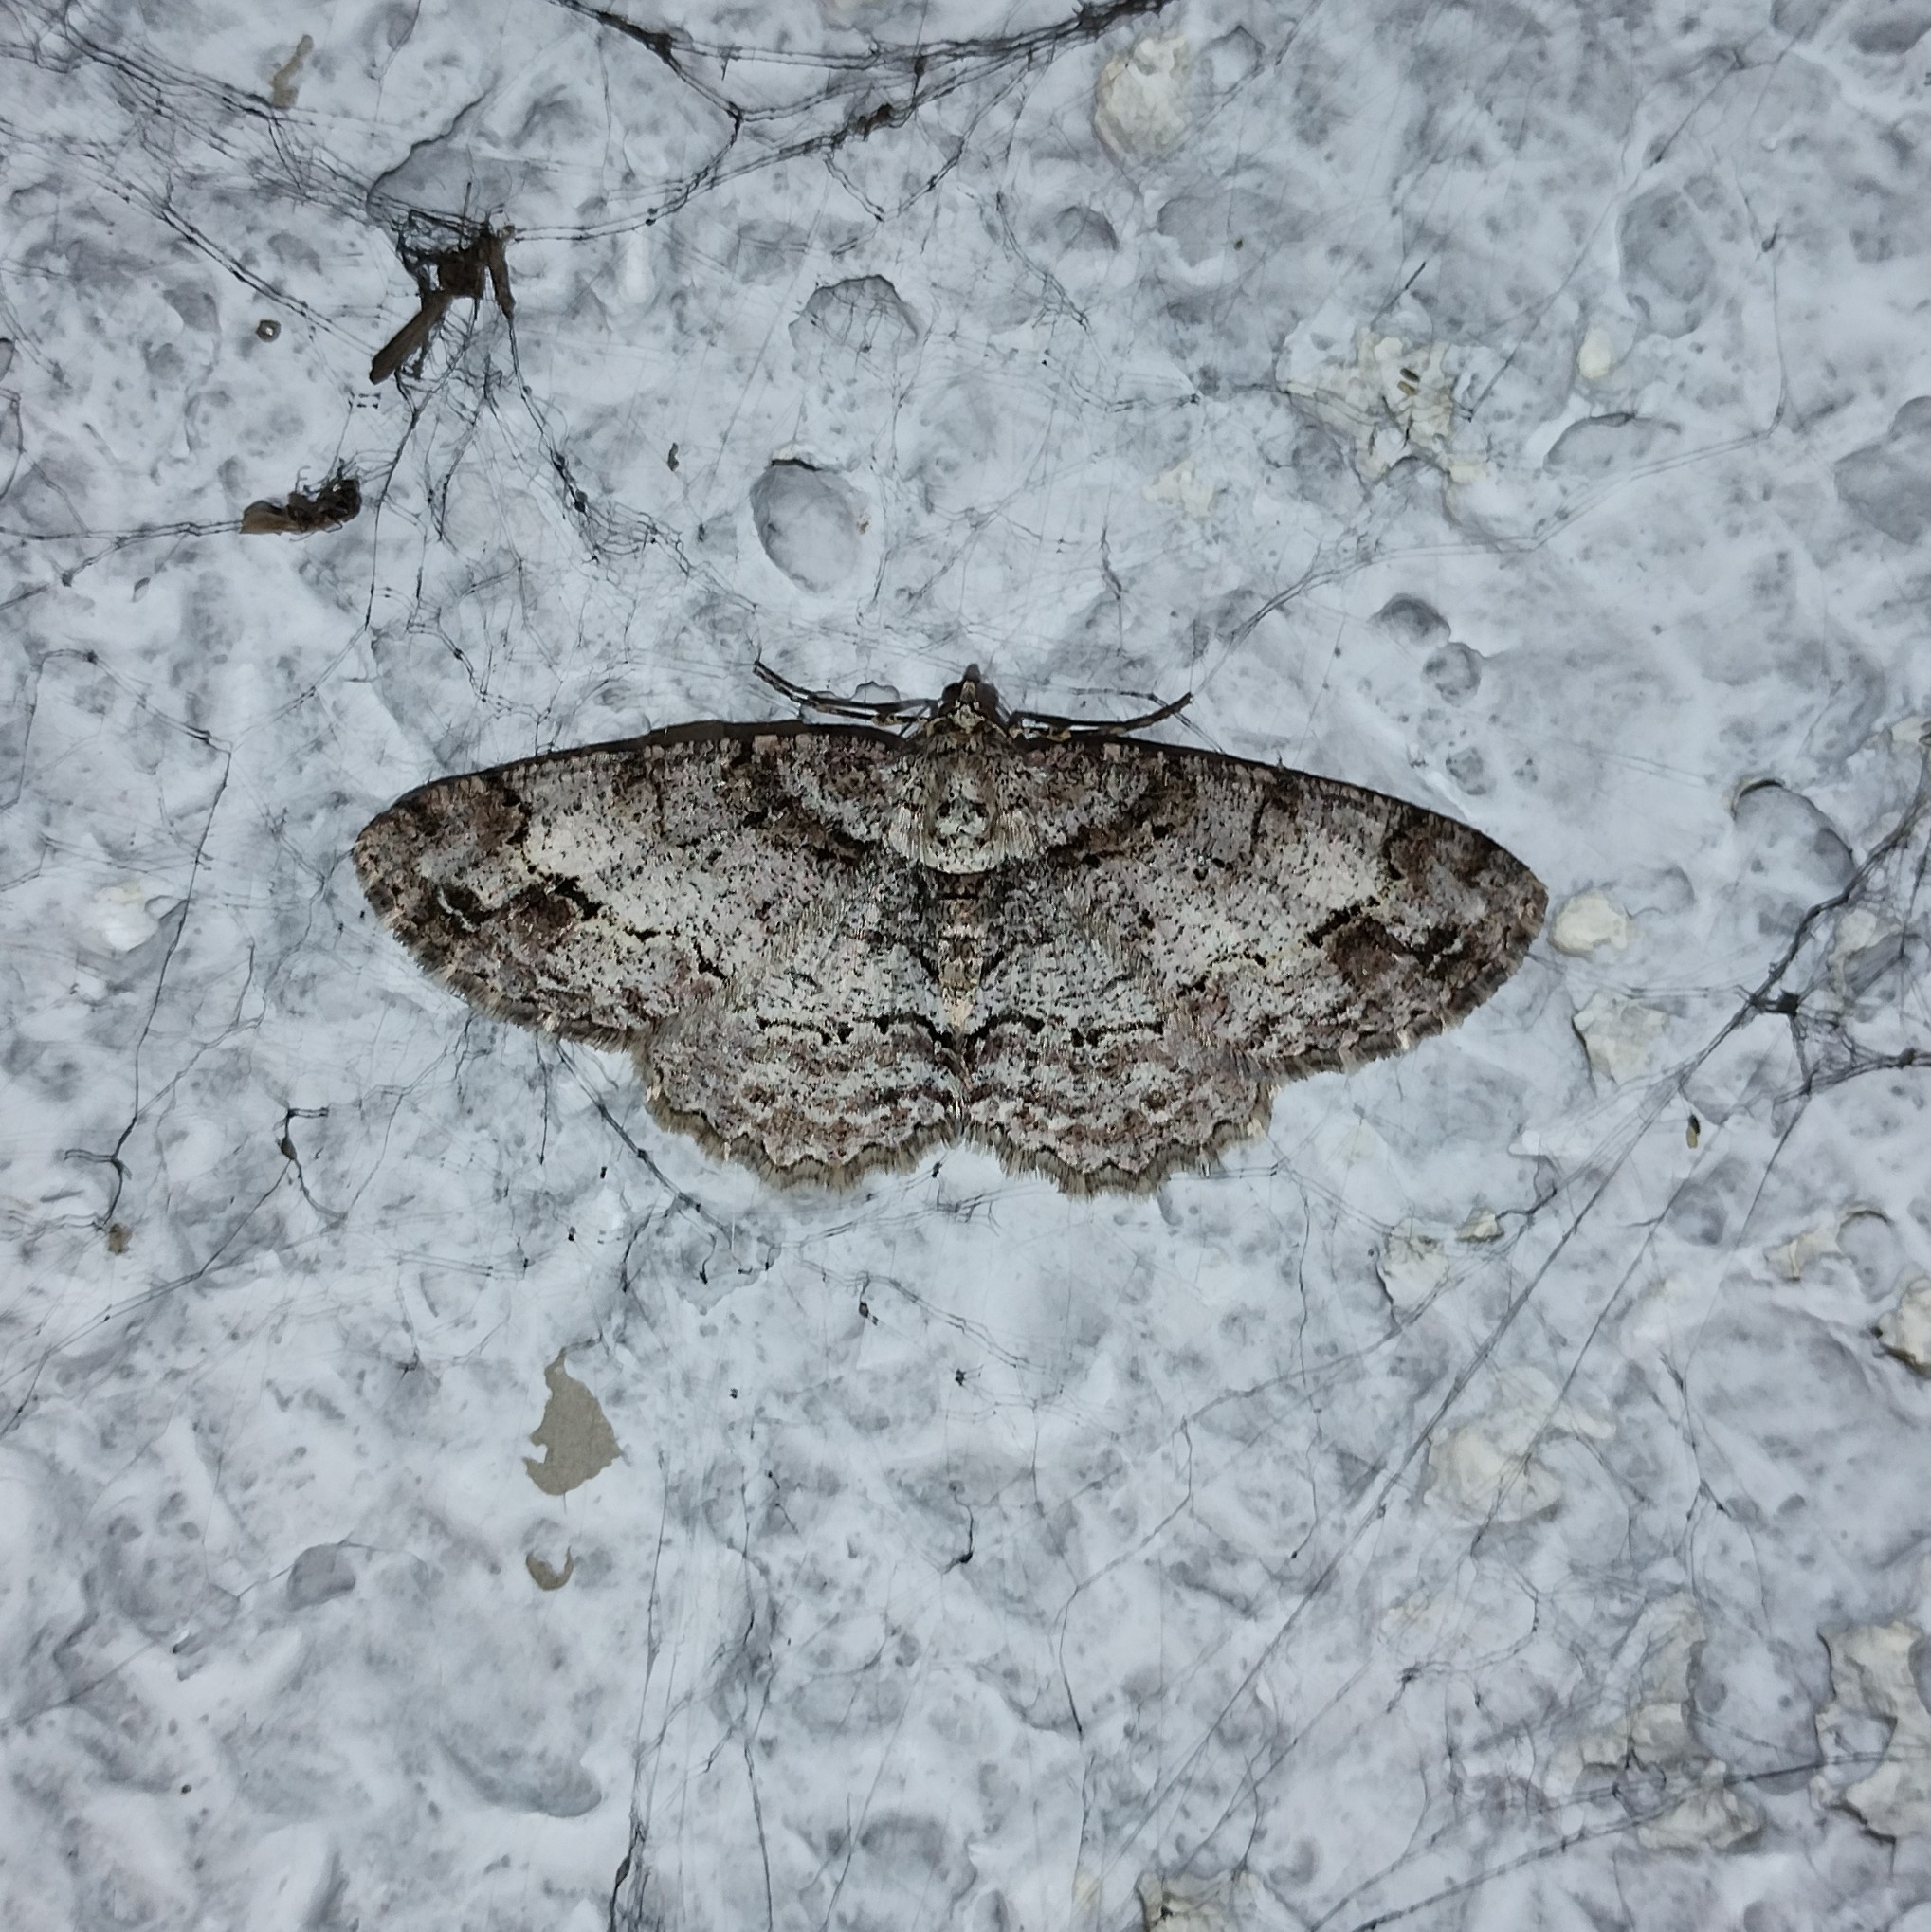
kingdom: Animalia
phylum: Arthropoda
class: Insecta
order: Lepidoptera
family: Geometridae
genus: Paradarisa
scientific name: Paradarisa consonaria
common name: Square spot
